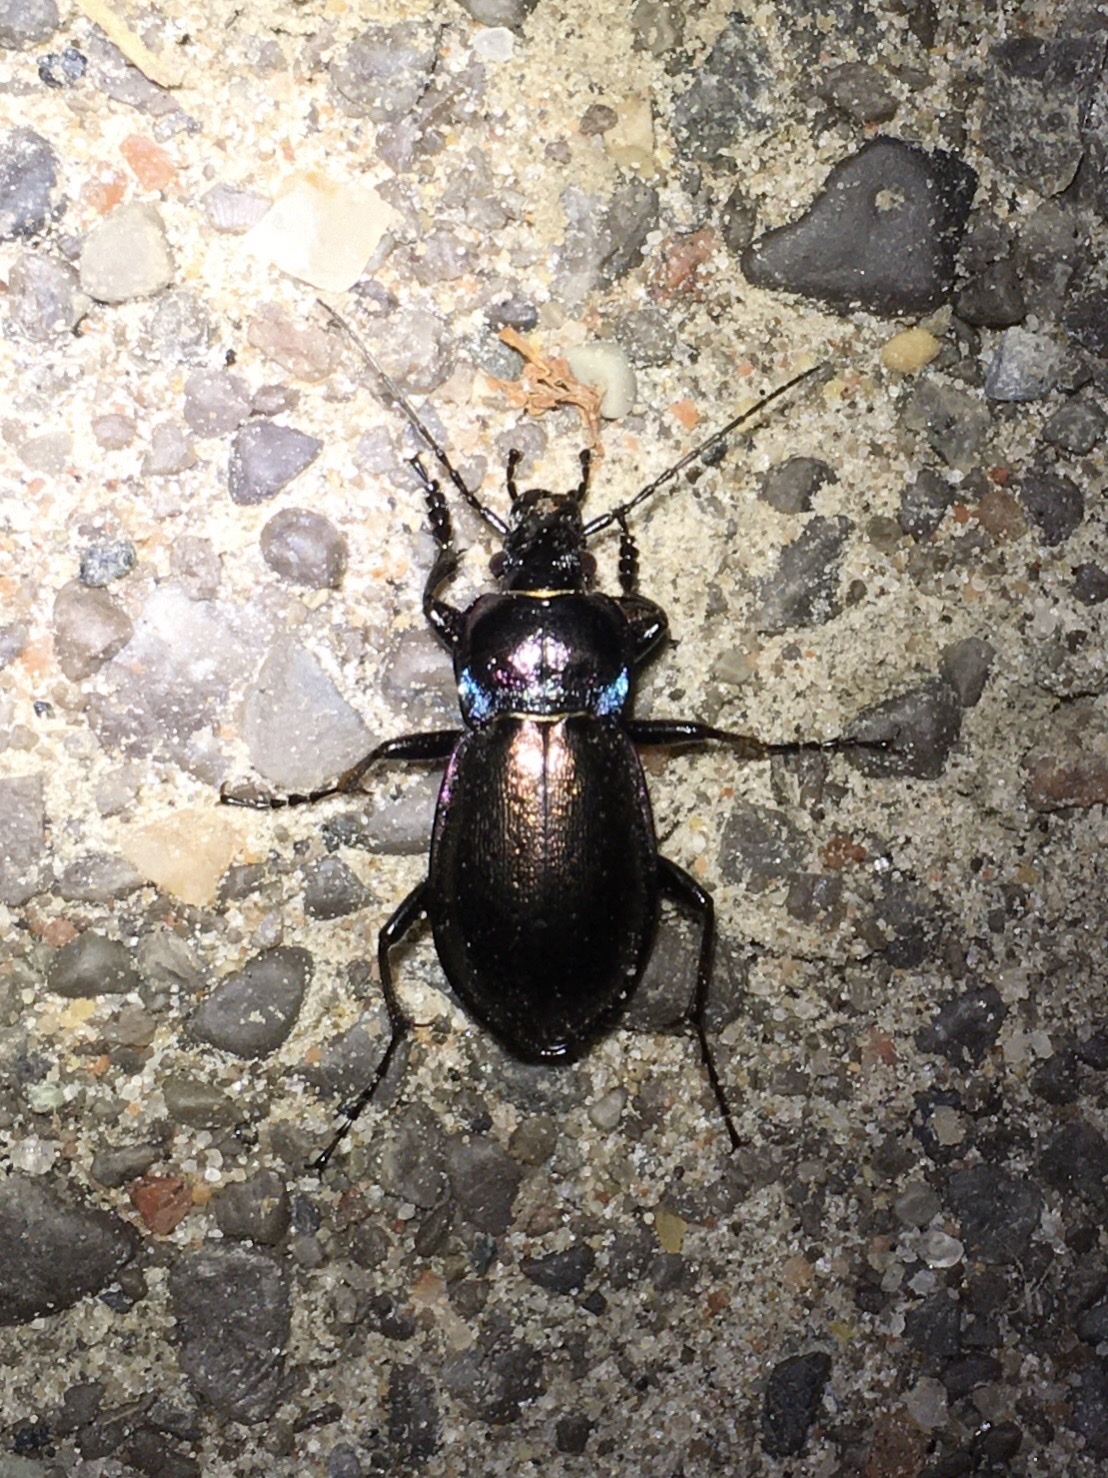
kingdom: Animalia
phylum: Arthropoda
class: Insecta
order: Coleoptera
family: Carabidae
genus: Carabus
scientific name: Carabus nemoralis
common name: European ground beetle
